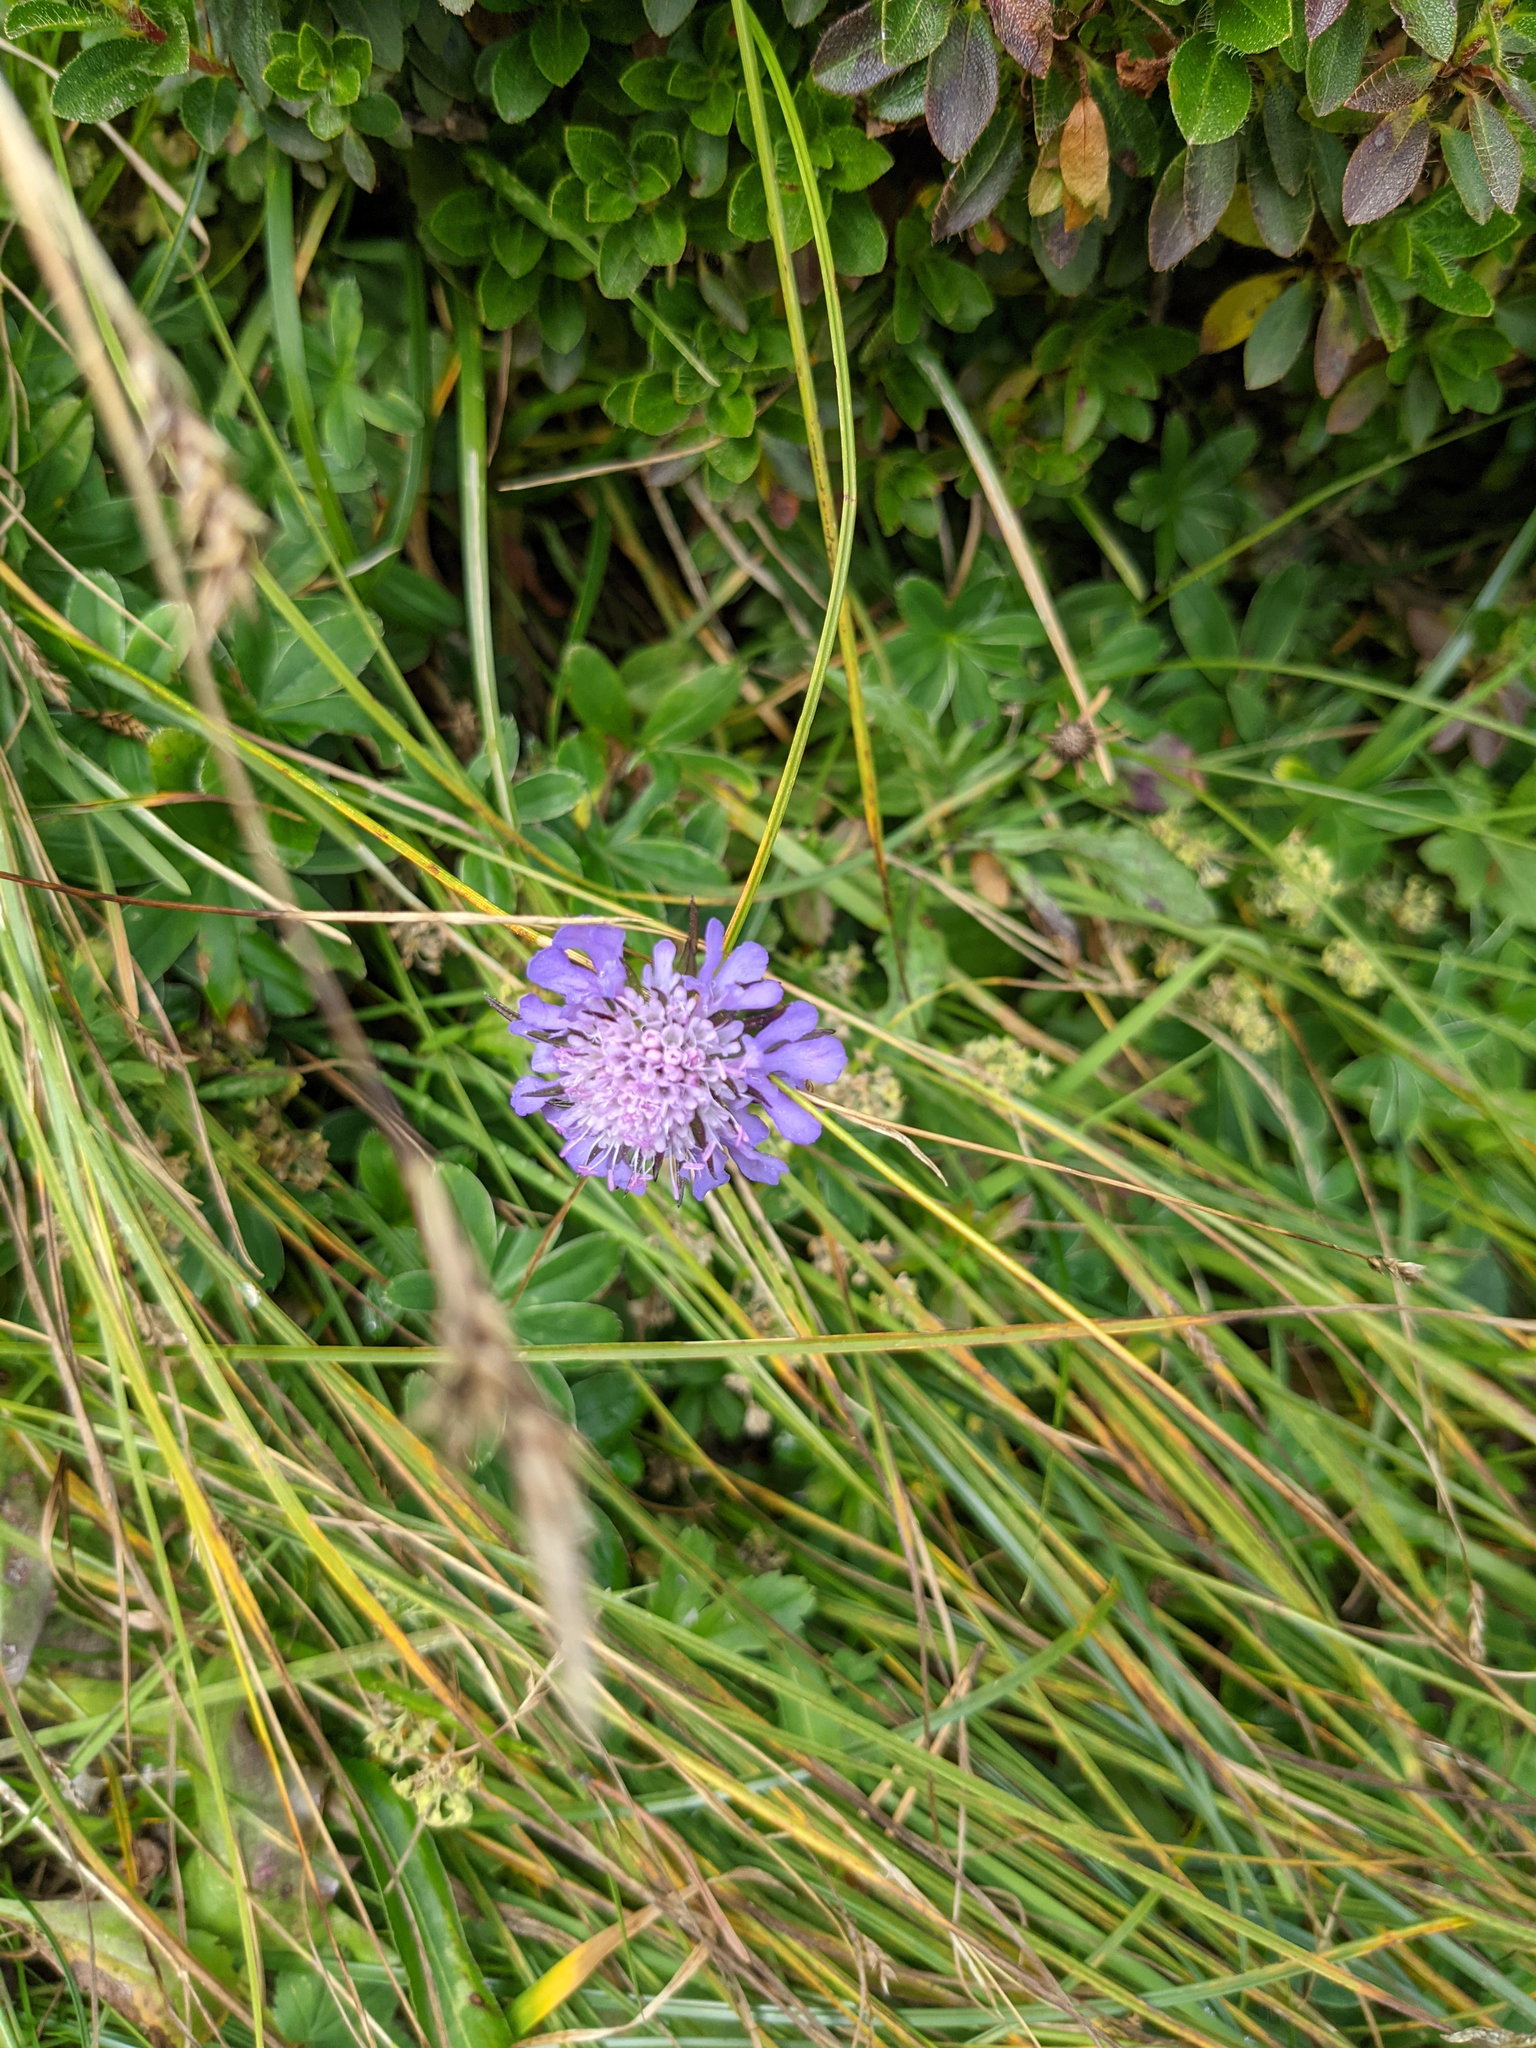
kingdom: Plantae
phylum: Tracheophyta
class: Magnoliopsida
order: Dipsacales
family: Caprifoliaceae
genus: Scabiosa
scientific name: Scabiosa lucida
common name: Shining scabious
